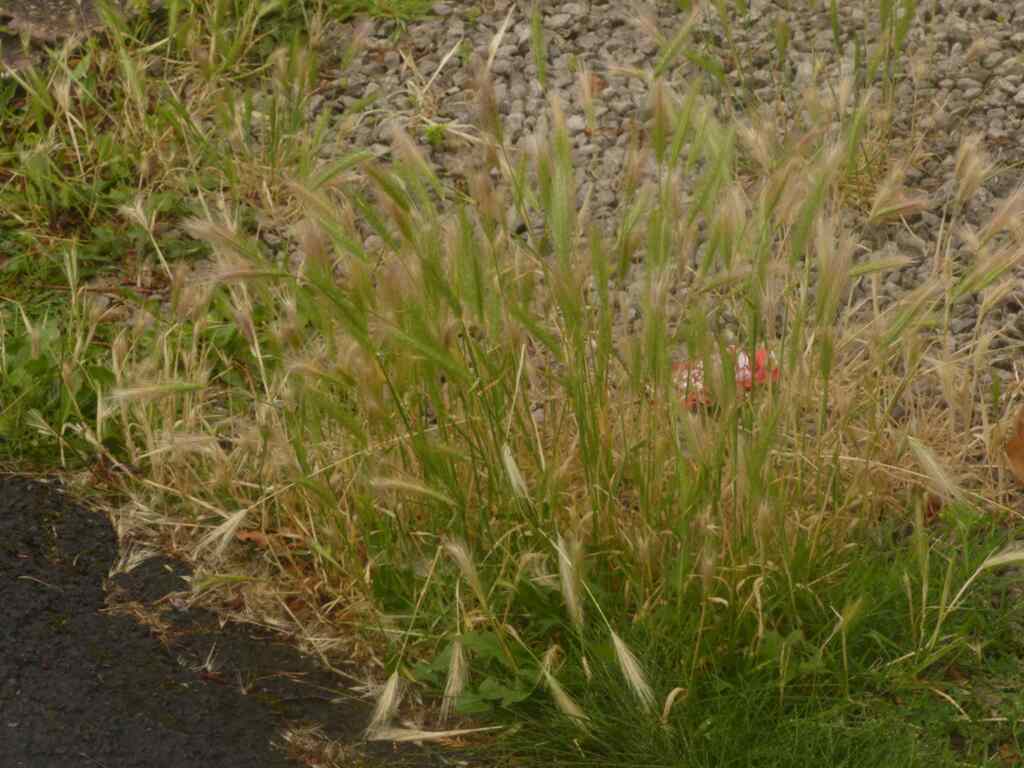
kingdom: Plantae
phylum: Tracheophyta
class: Liliopsida
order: Poales
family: Poaceae
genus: Hordeum
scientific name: Hordeum murinum
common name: Wall barley
